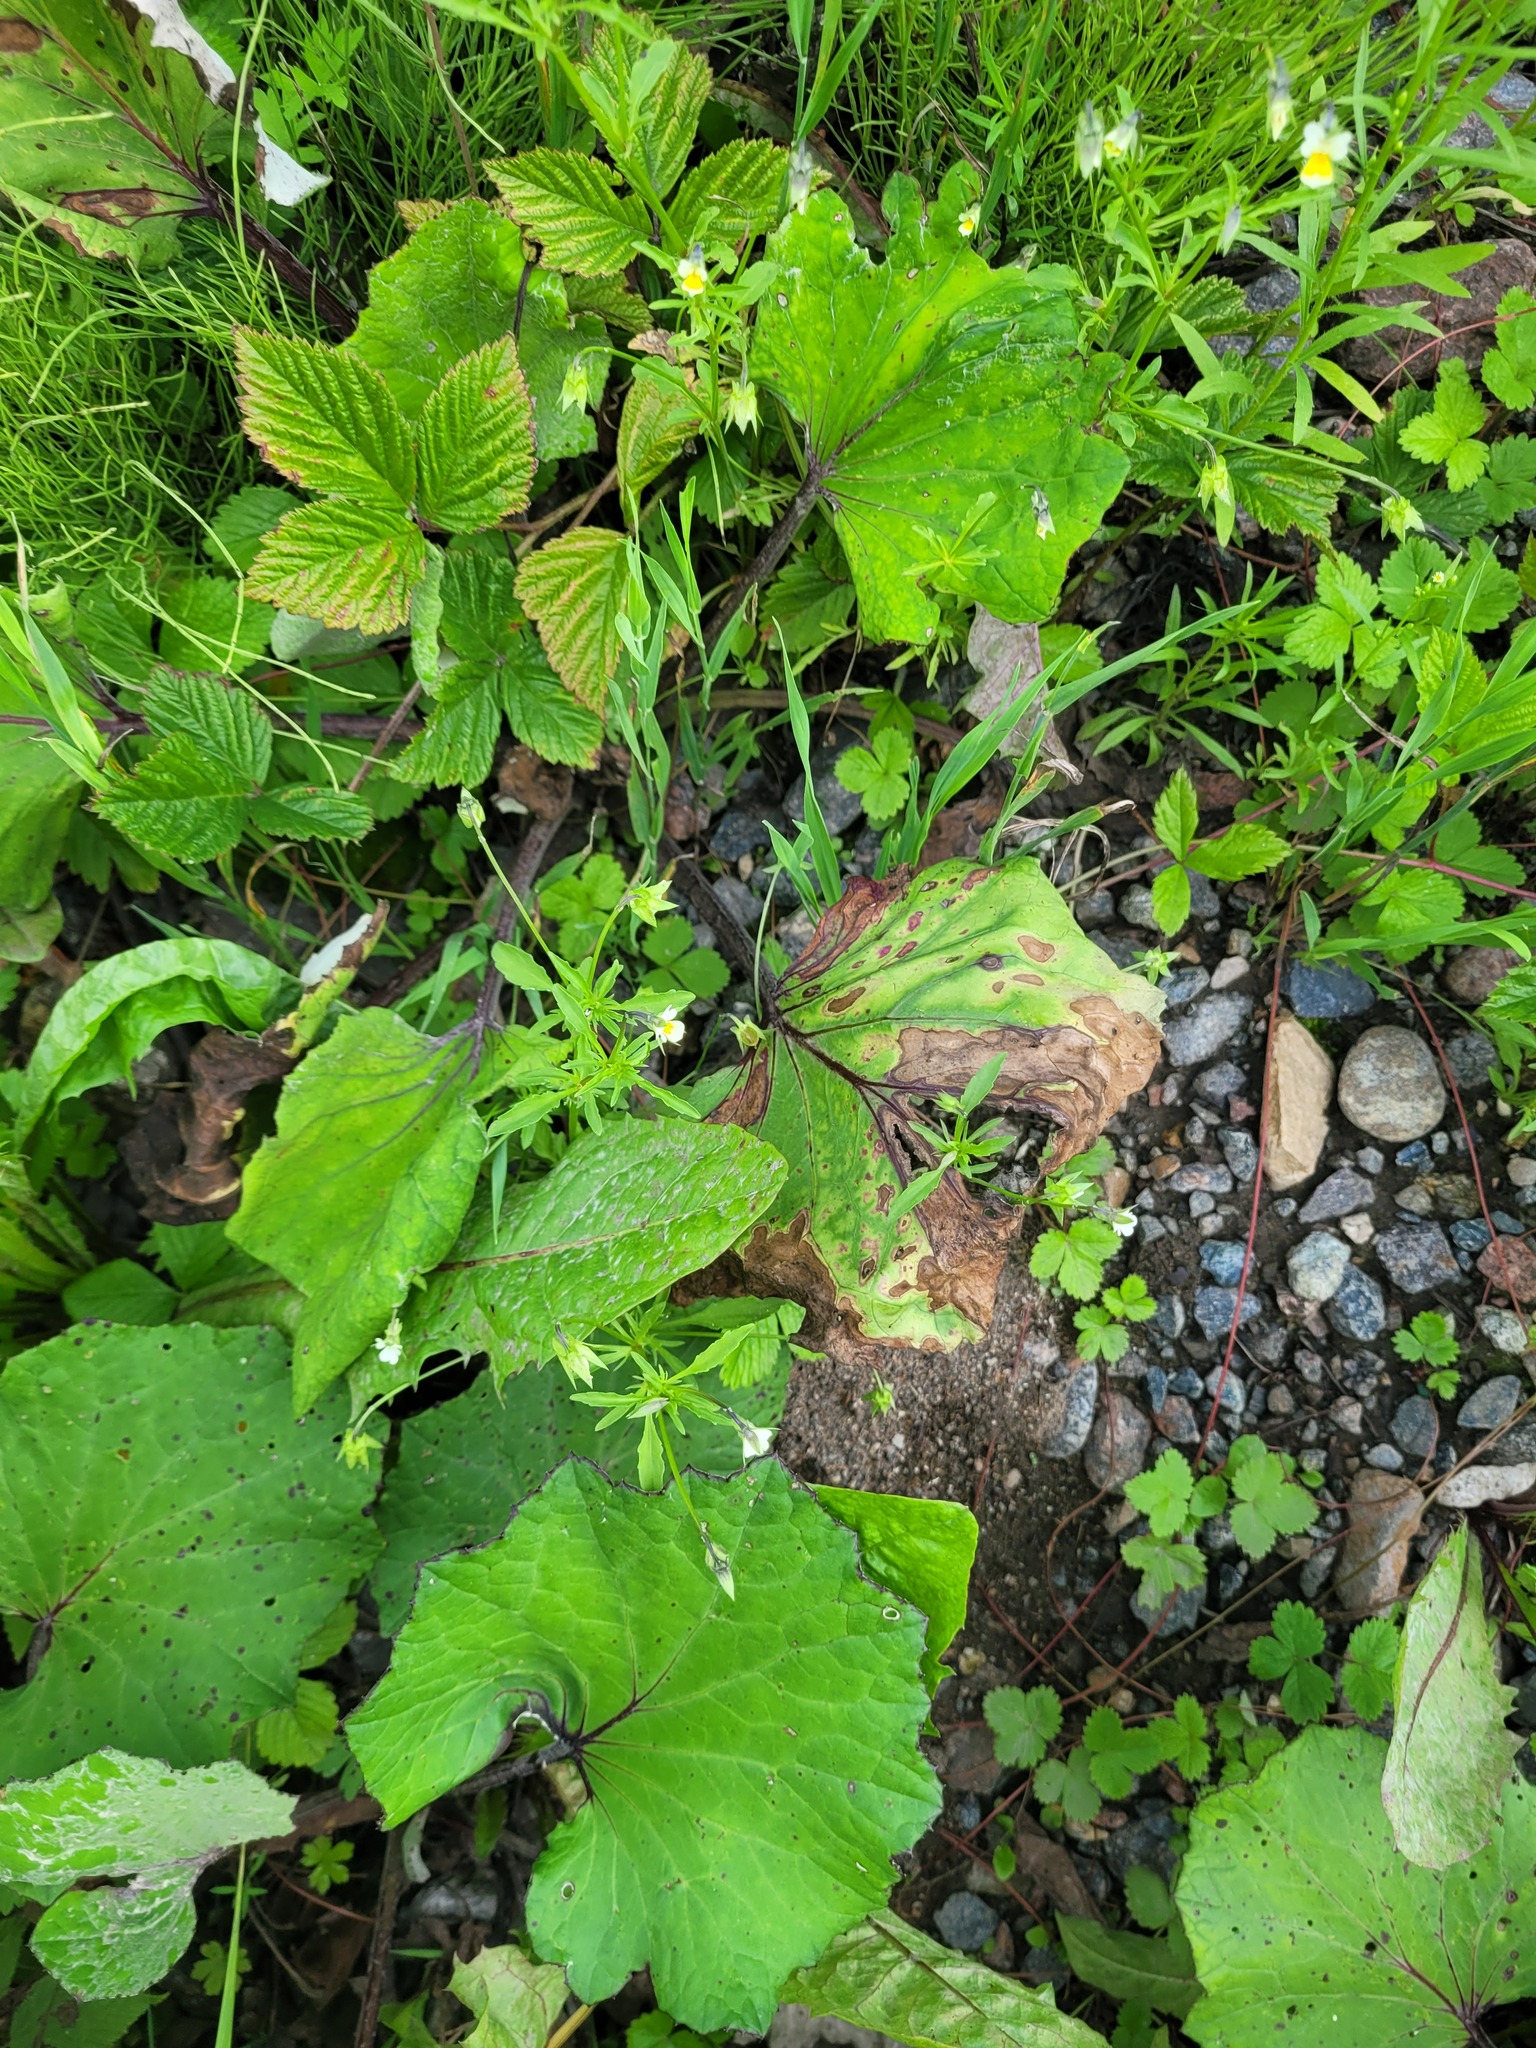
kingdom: Plantae
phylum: Tracheophyta
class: Magnoliopsida
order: Malpighiales
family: Violaceae
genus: Viola
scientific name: Viola arvensis
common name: Field pansy
